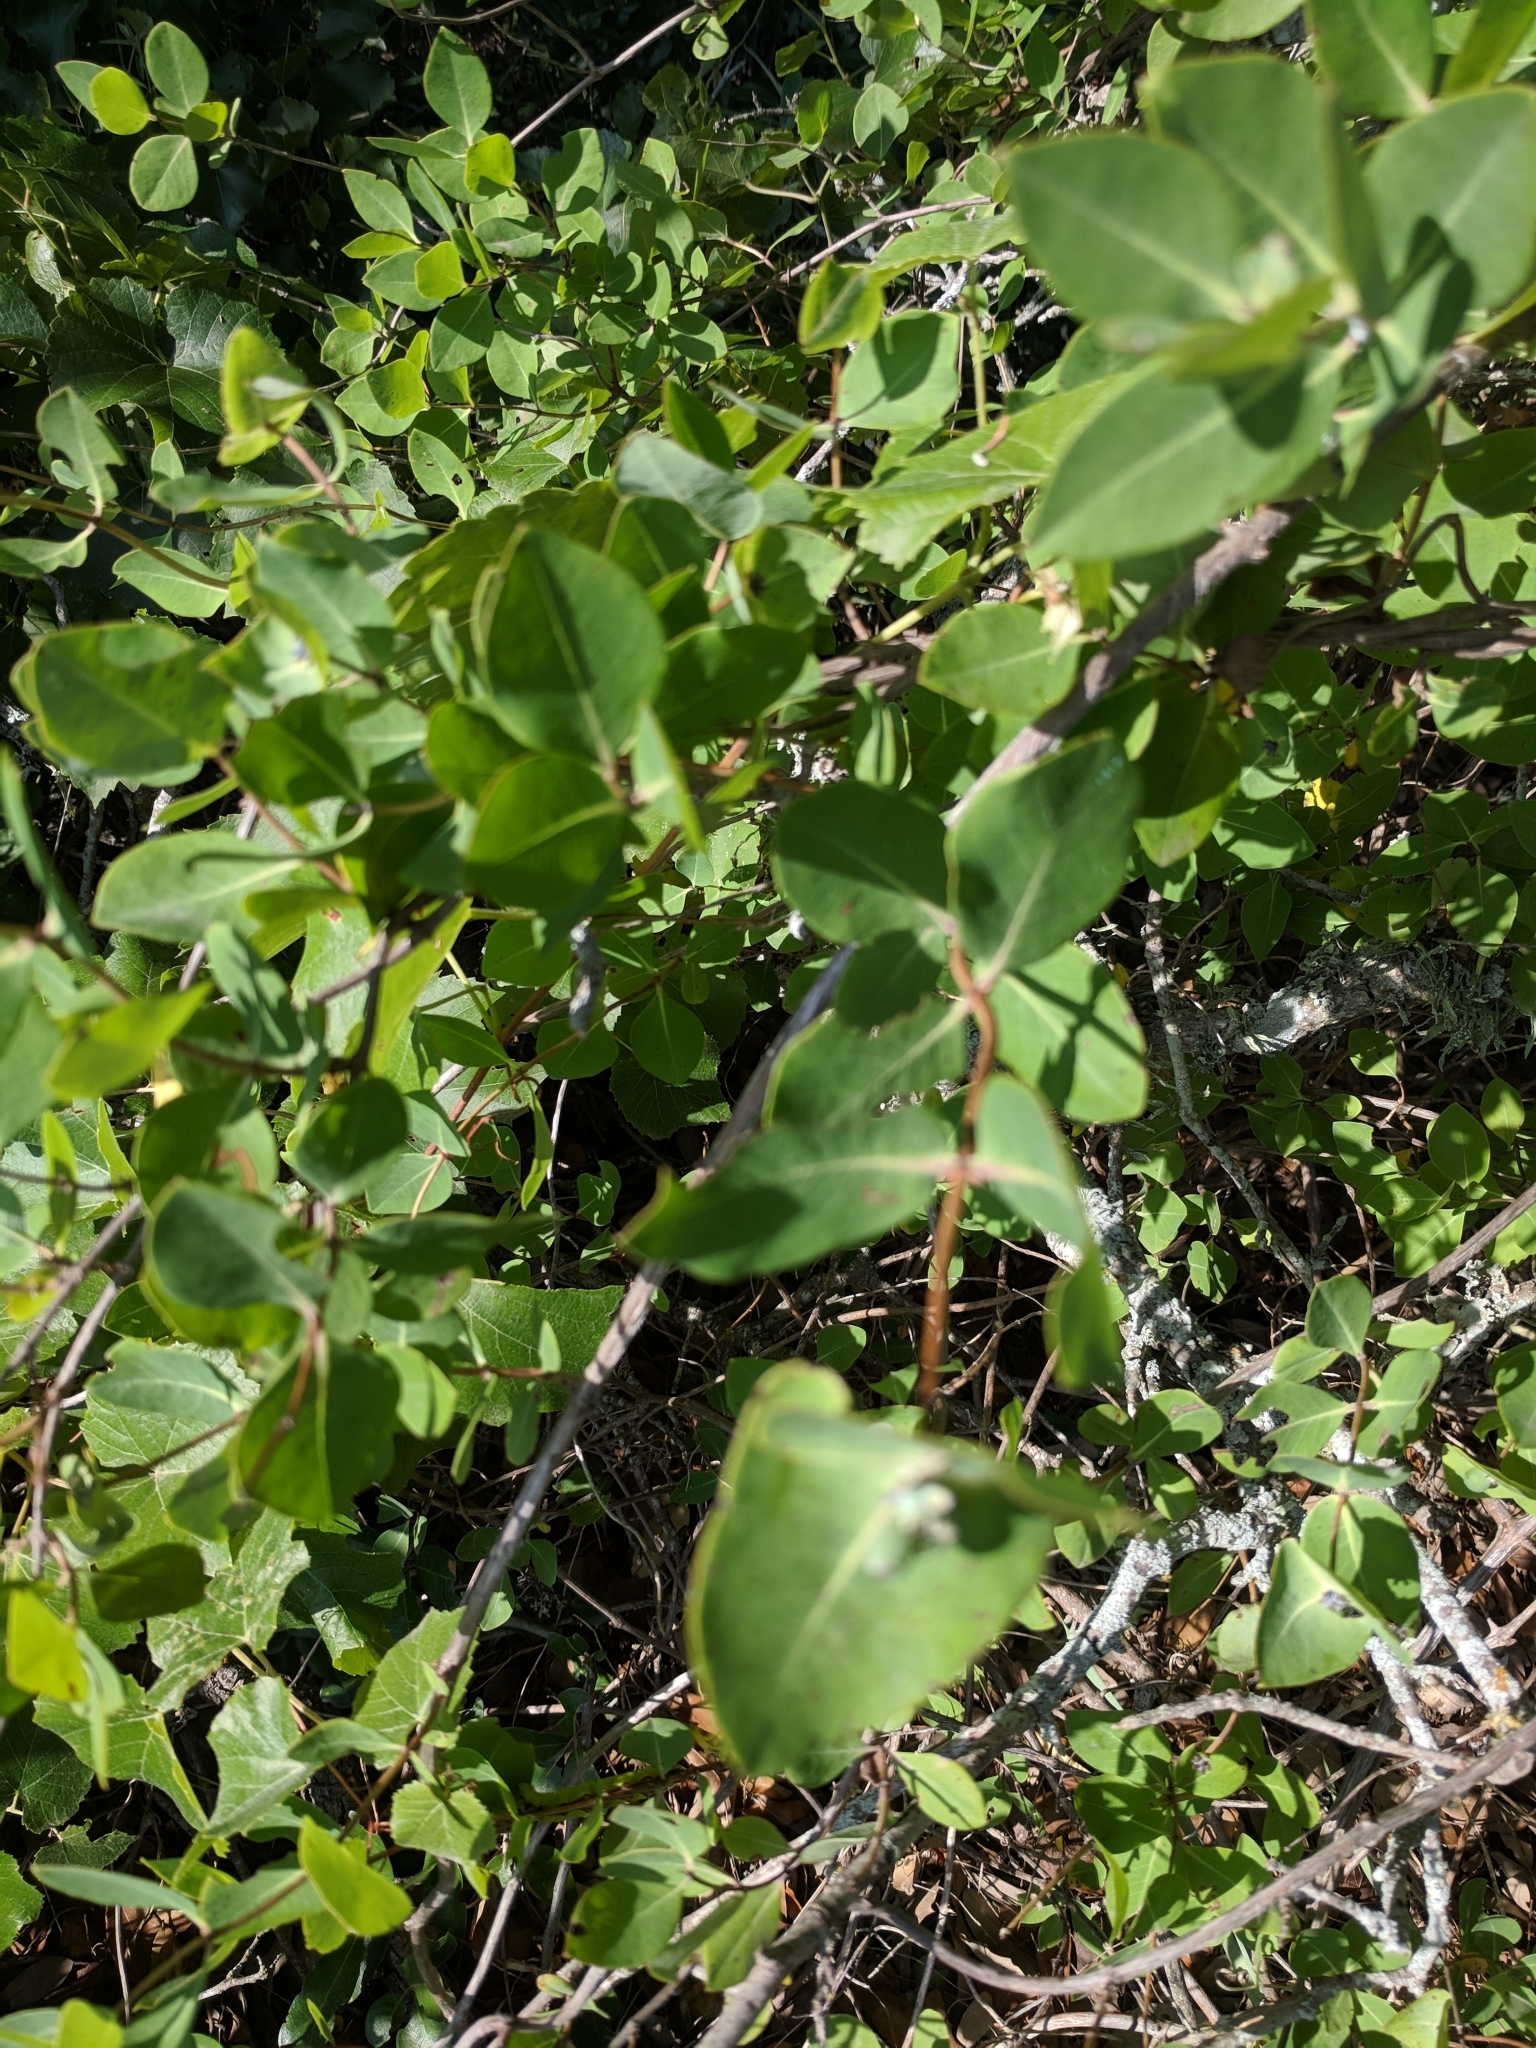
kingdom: Plantae
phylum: Tracheophyta
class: Magnoliopsida
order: Dipsacales
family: Caprifoliaceae
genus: Lonicera
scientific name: Lonicera albiflora
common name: White honeysuckle
